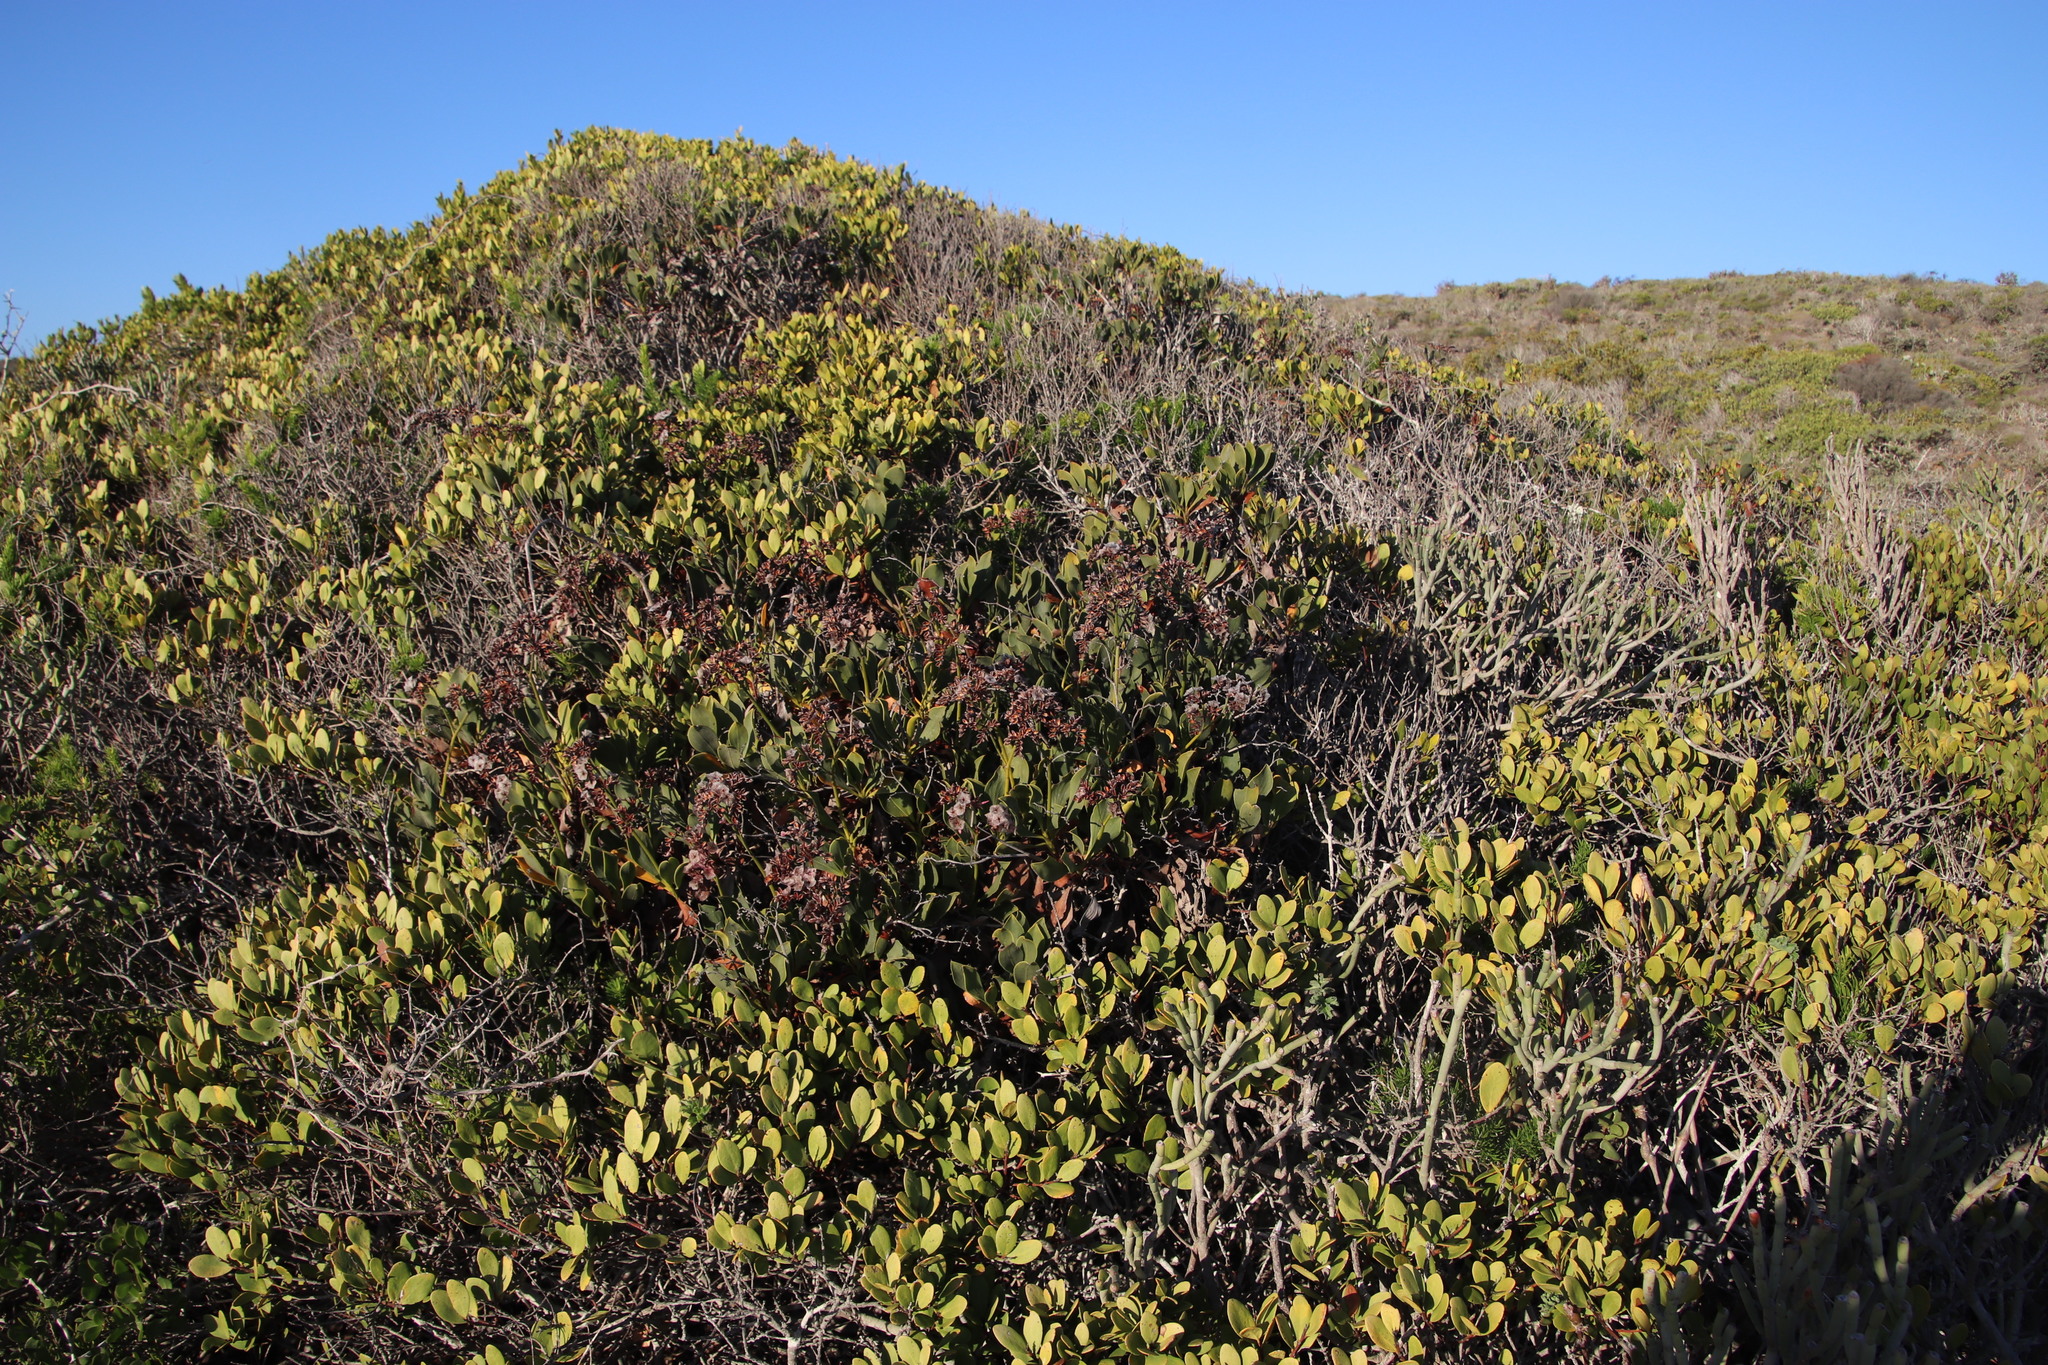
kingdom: Plantae
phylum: Tracheophyta
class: Magnoliopsida
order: Caryophyllales
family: Plumbaginaceae
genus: Limonium
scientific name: Limonium peregrinum
